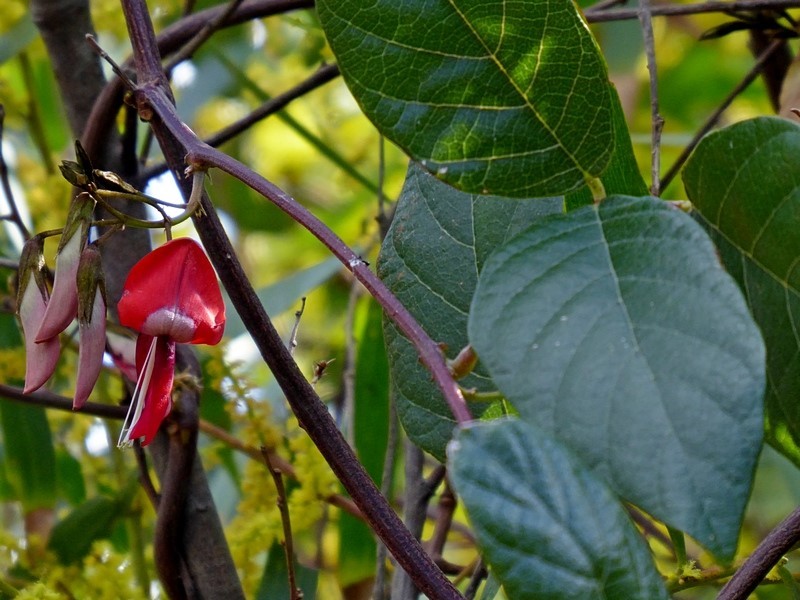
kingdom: Plantae
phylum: Tracheophyta
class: Magnoliopsida
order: Fabales
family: Fabaceae
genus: Kennedia
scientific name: Kennedia rubicunda
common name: Red kennedy-pea
